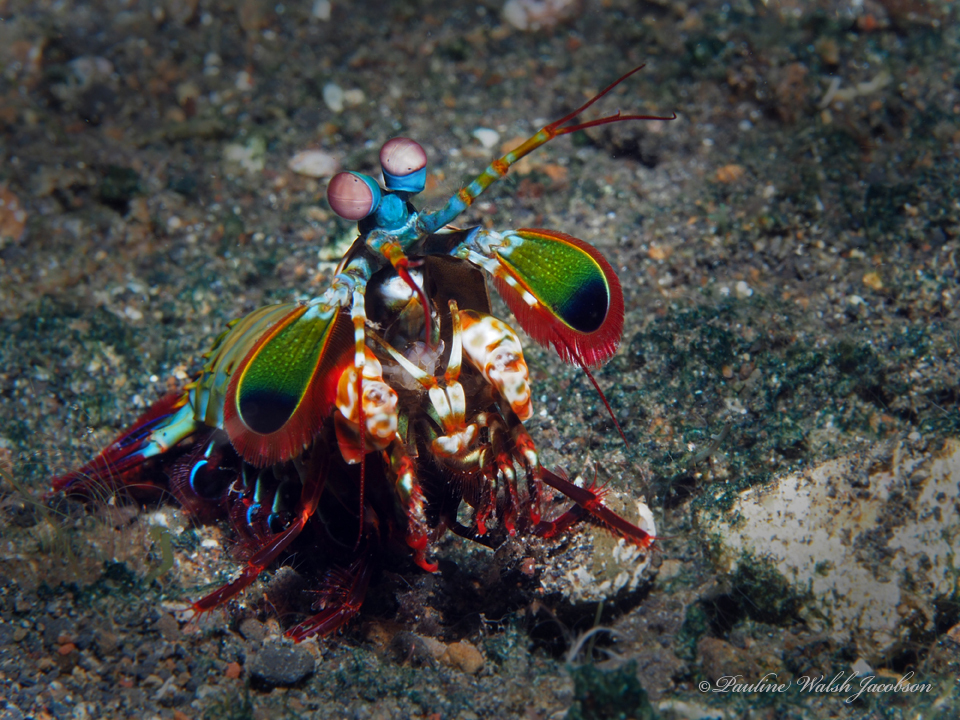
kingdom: Animalia
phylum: Arthropoda
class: Malacostraca
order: Stomatopoda
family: Odontodactylidae
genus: Odontodactylus
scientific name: Odontodactylus scyllarus
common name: Peacock mantis shrimp
